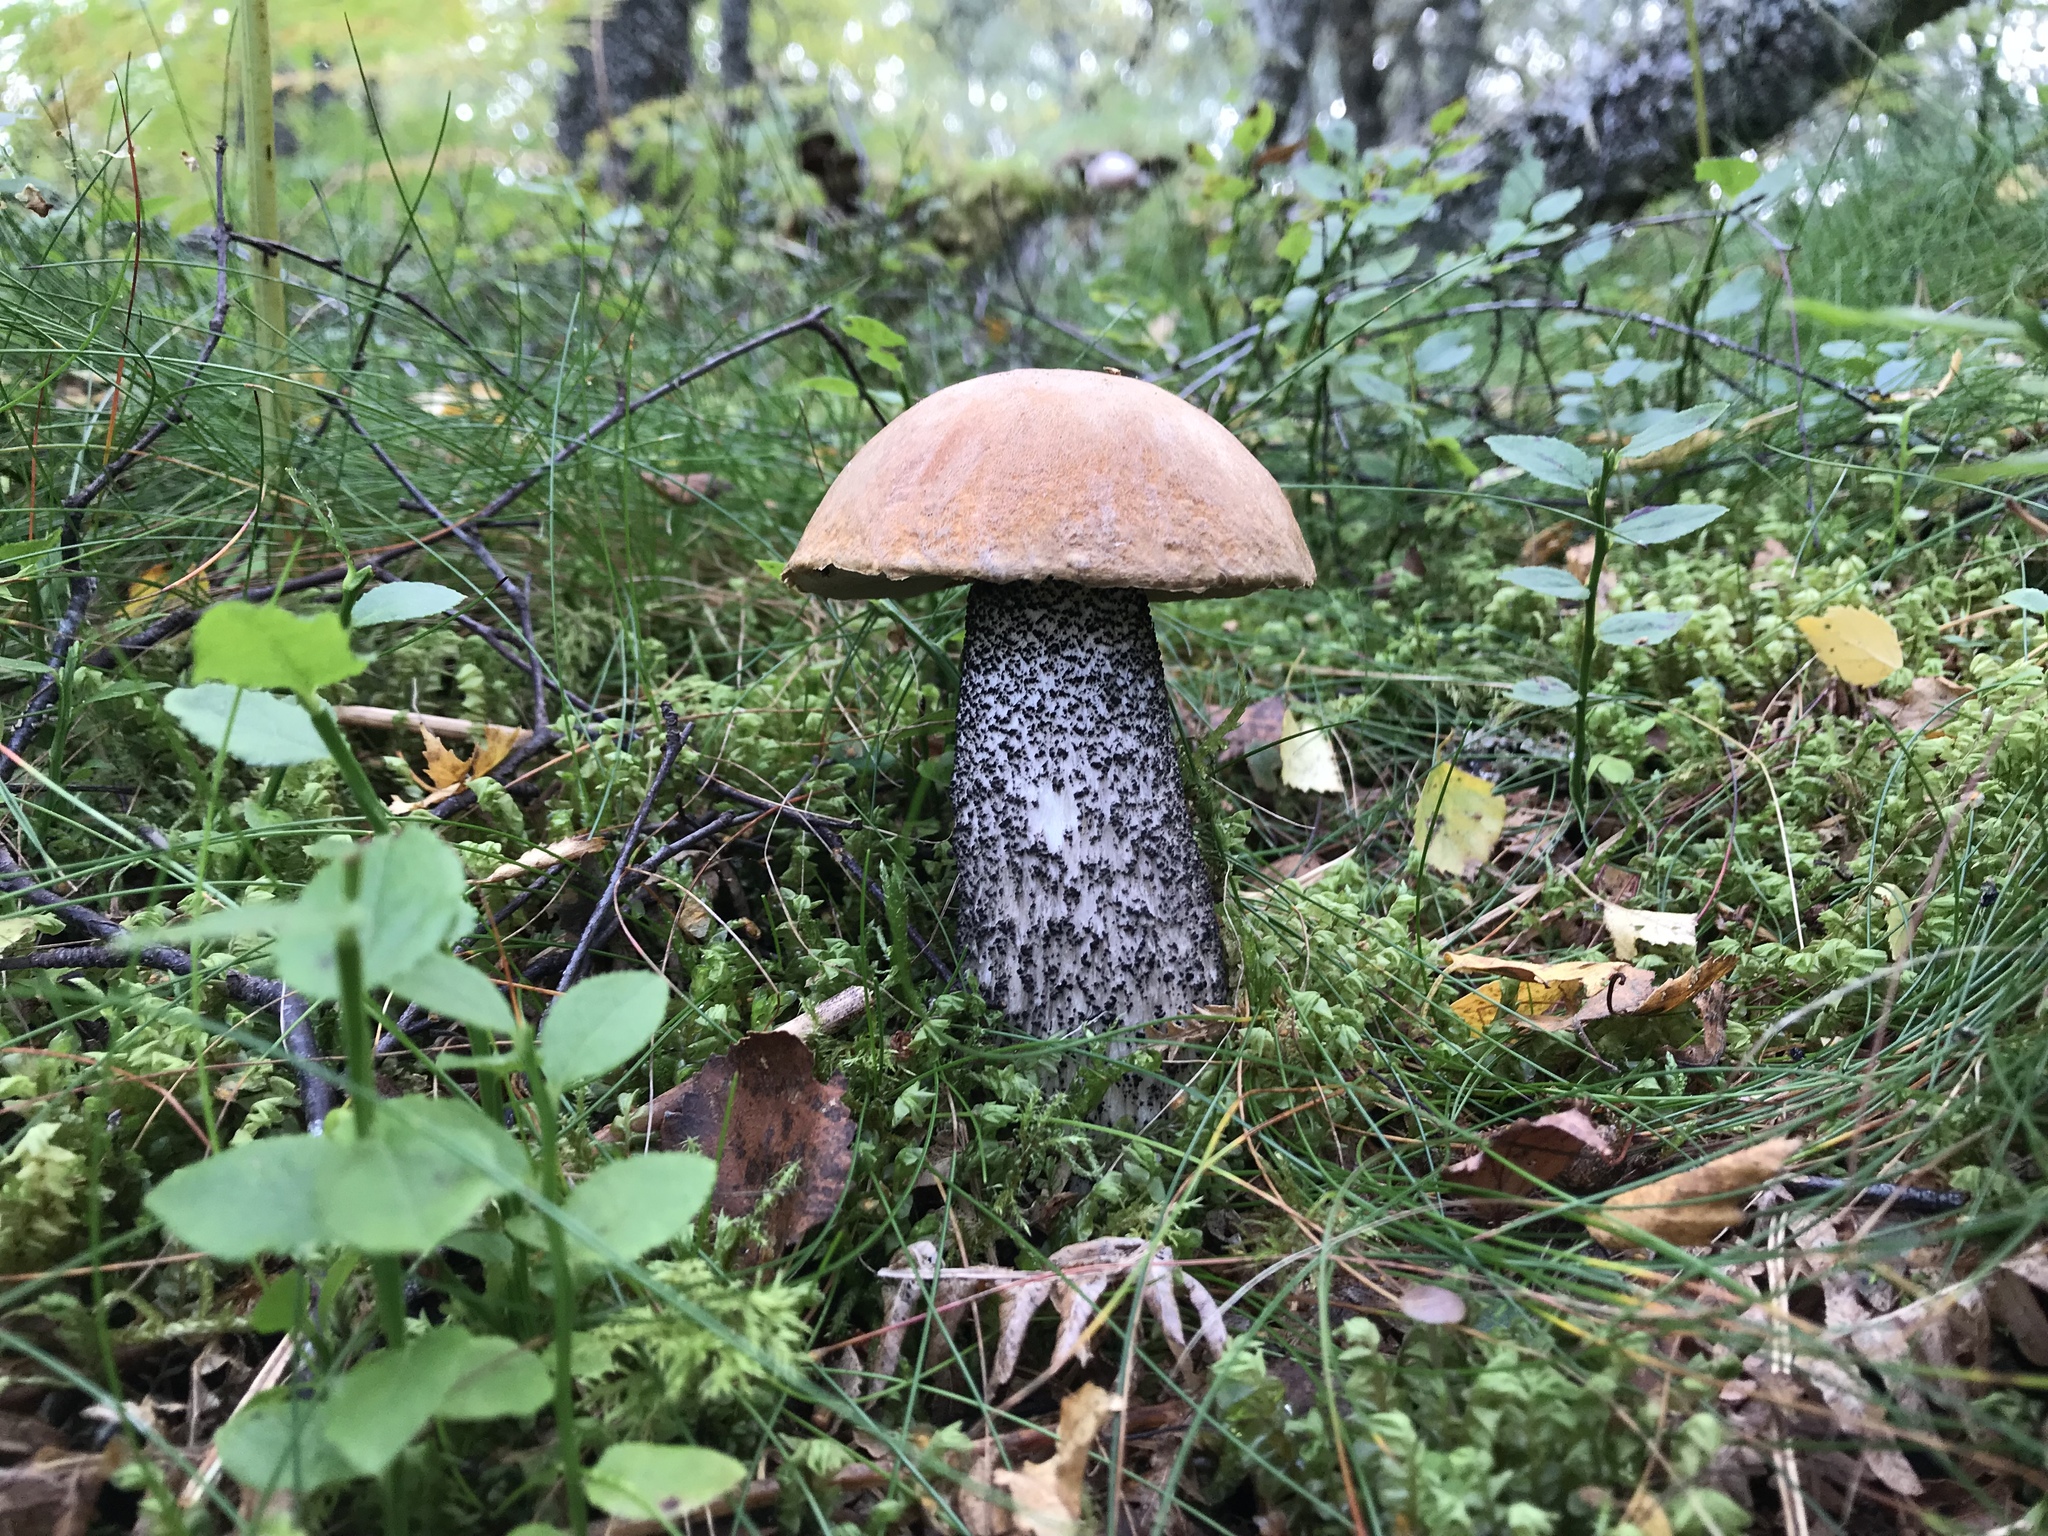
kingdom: Fungi
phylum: Basidiomycota
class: Agaricomycetes
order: Boletales
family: Boletaceae
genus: Leccinum
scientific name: Leccinum versipelle
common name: Orange birch bolete
